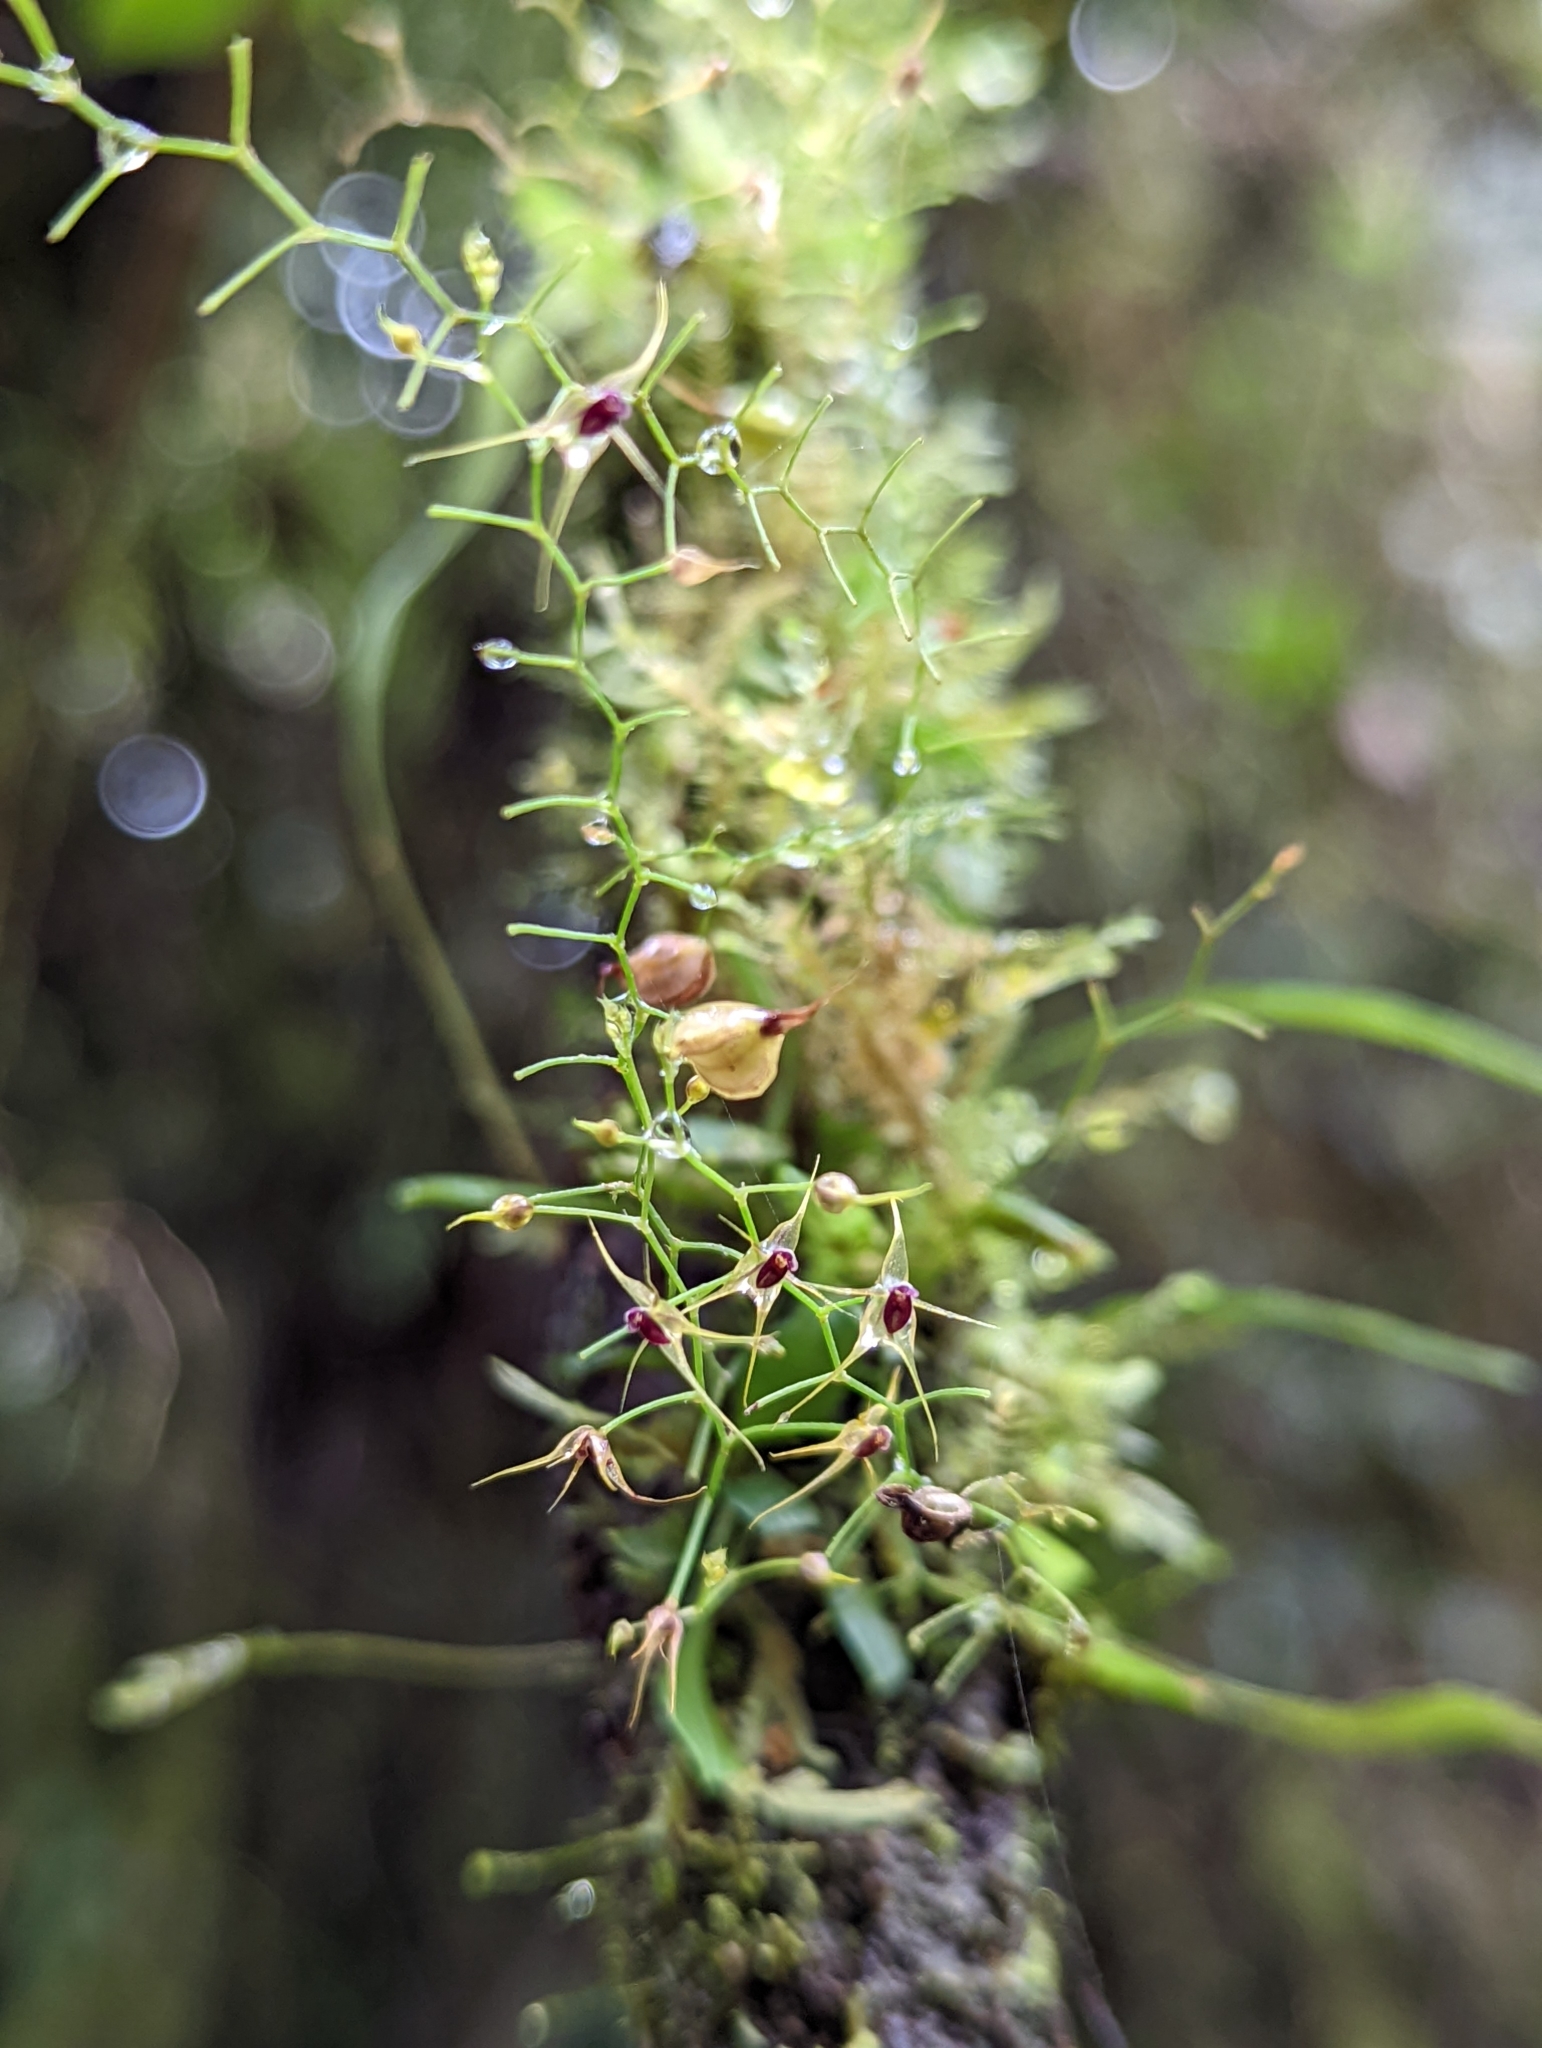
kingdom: Plantae
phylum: Tracheophyta
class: Liliopsida
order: Asparagales
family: Orchidaceae
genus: Platystele
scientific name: Platystele alucitae
